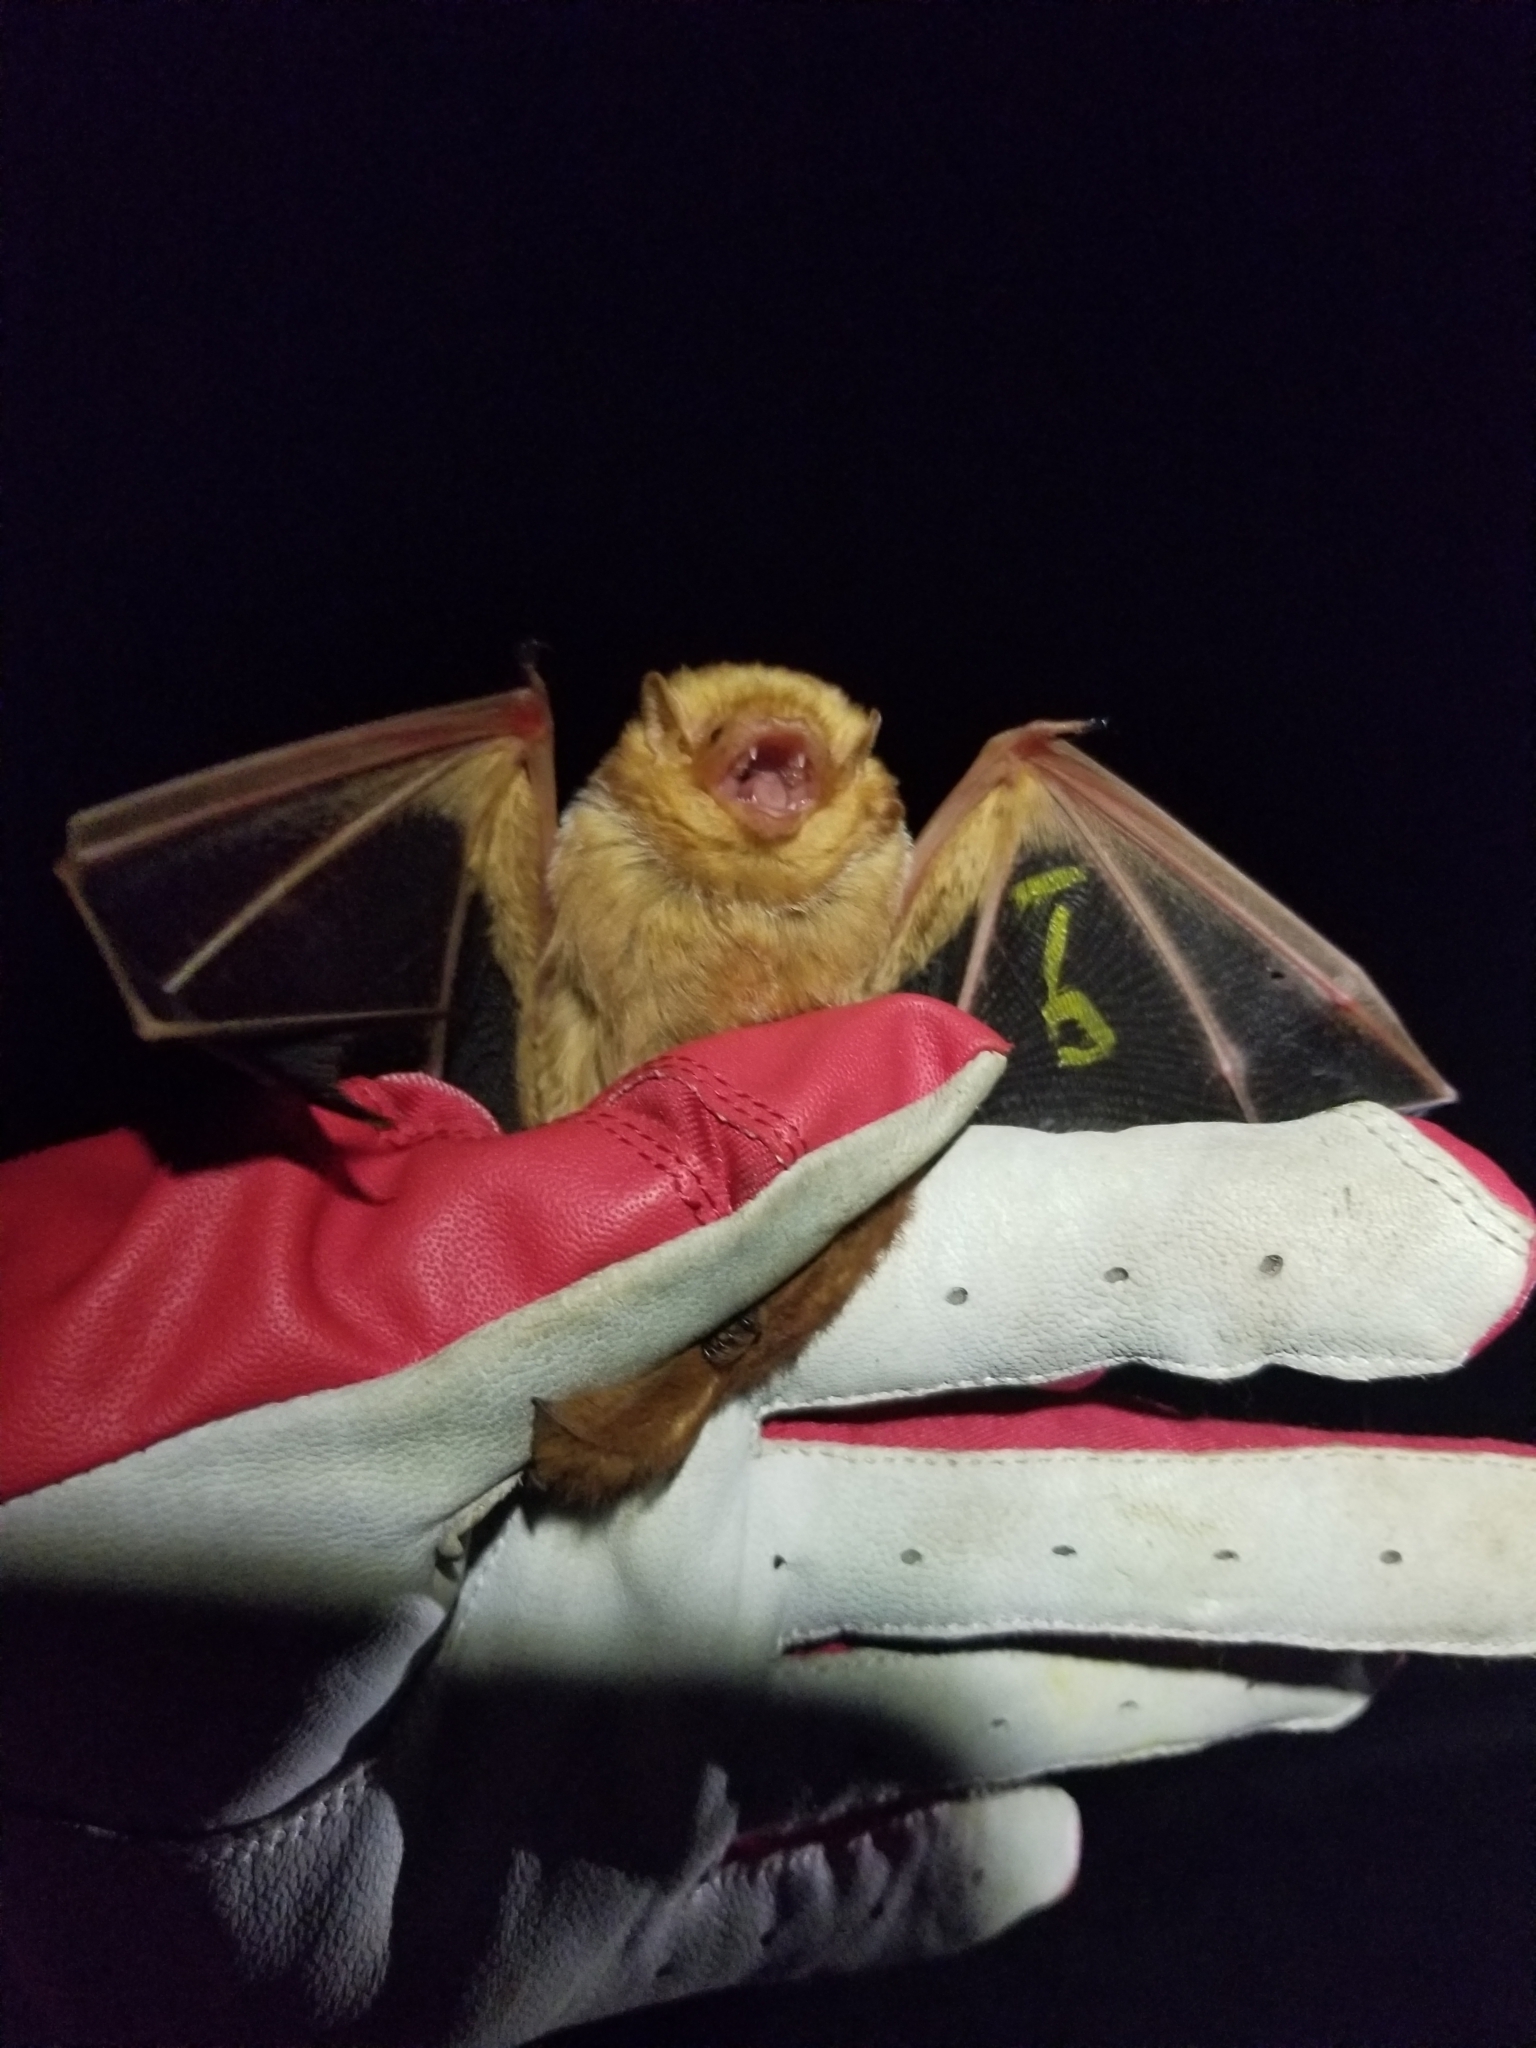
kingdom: Animalia
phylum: Chordata
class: Mammalia
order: Chiroptera
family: Vespertilionidae
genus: Lasiurus
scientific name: Lasiurus borealis
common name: Eastern red bat
